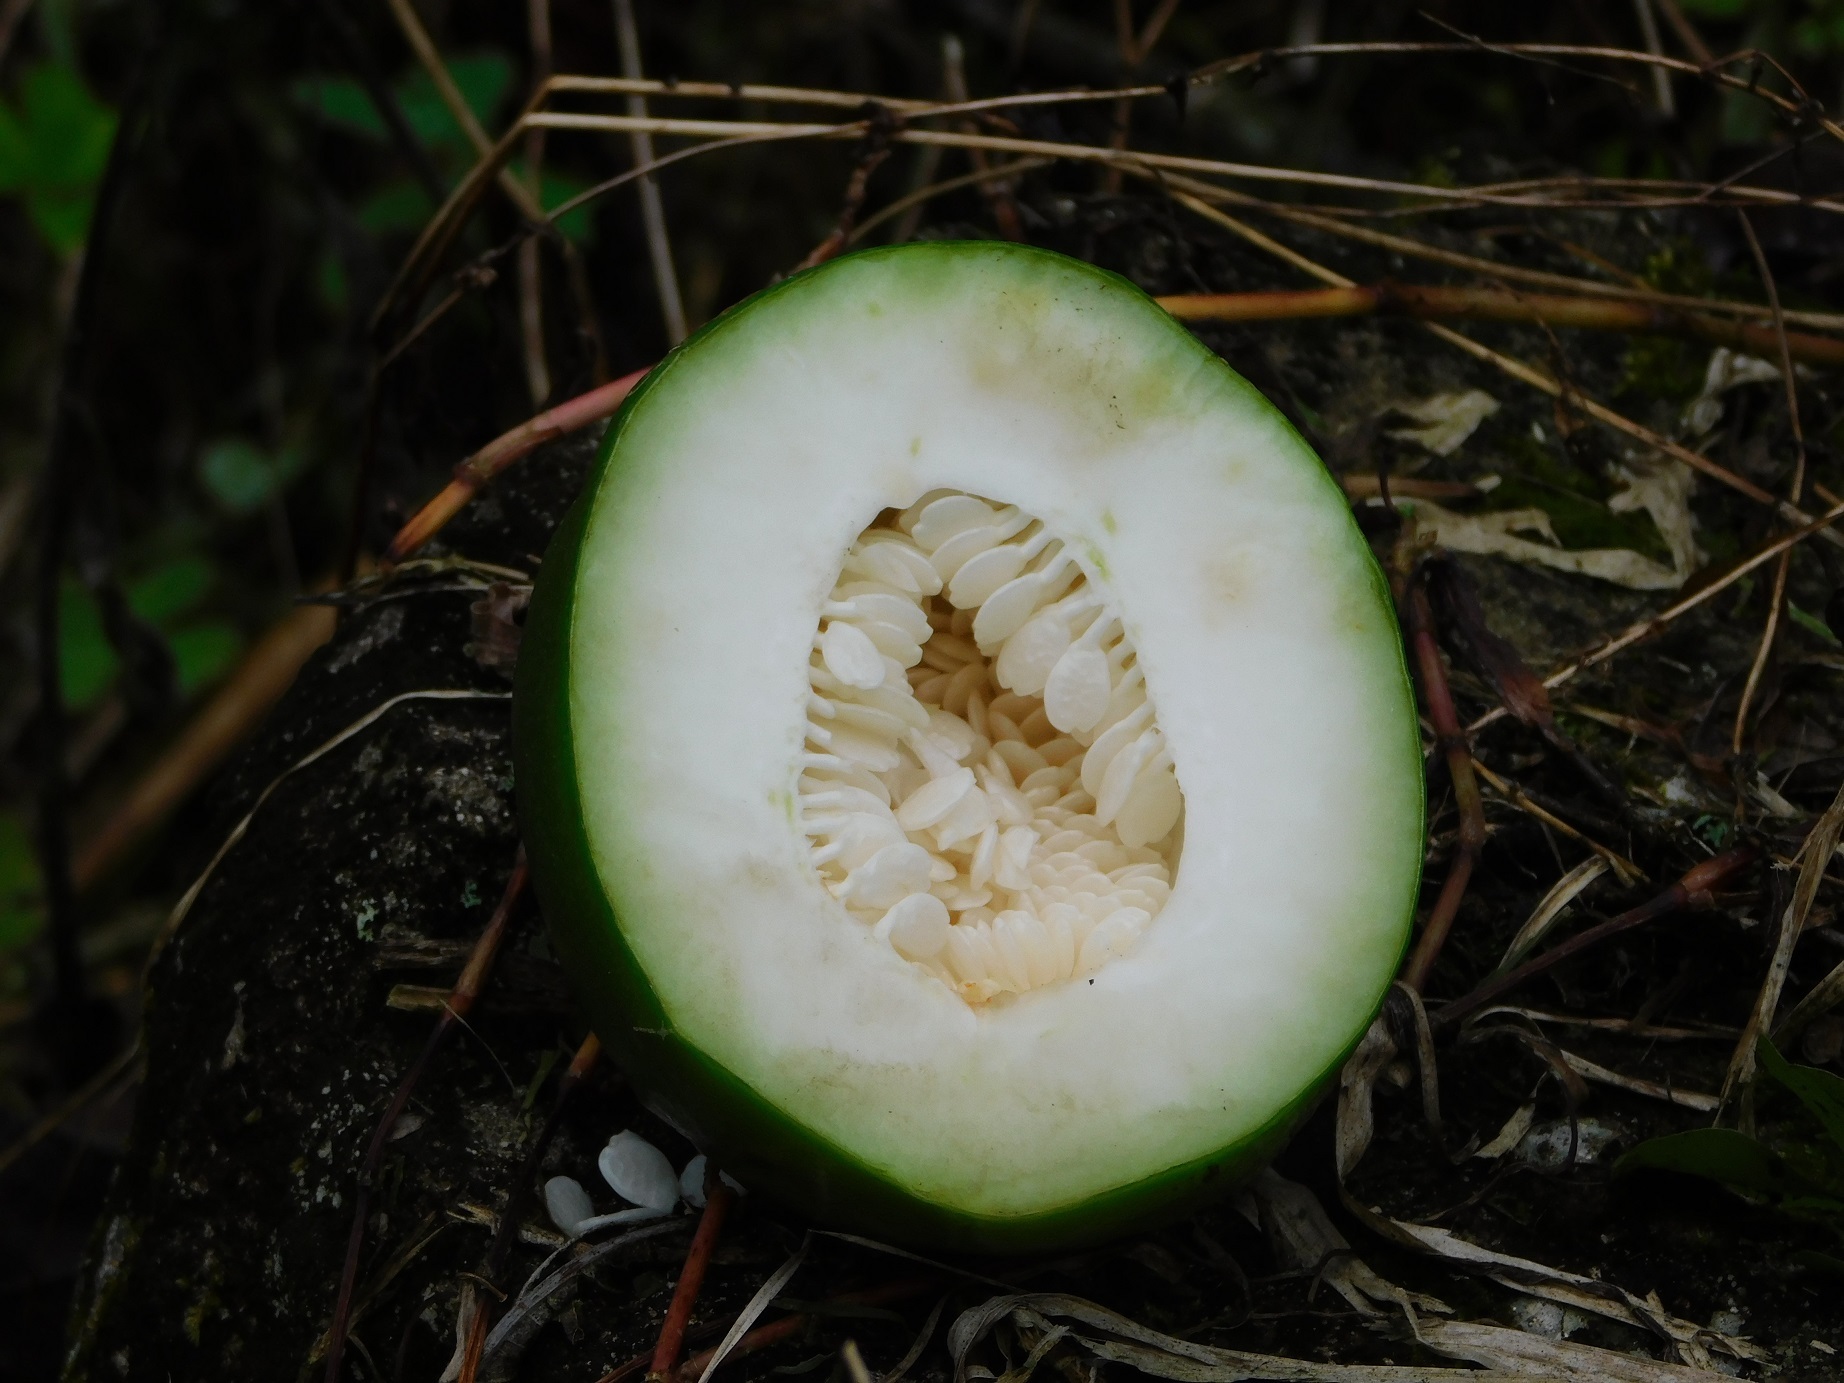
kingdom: Plantae
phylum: Tracheophyta
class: Magnoliopsida
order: Malpighiales
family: Passifloraceae
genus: Passiflora
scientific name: Passiflora alata
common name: Wing-stemmed passion flower
